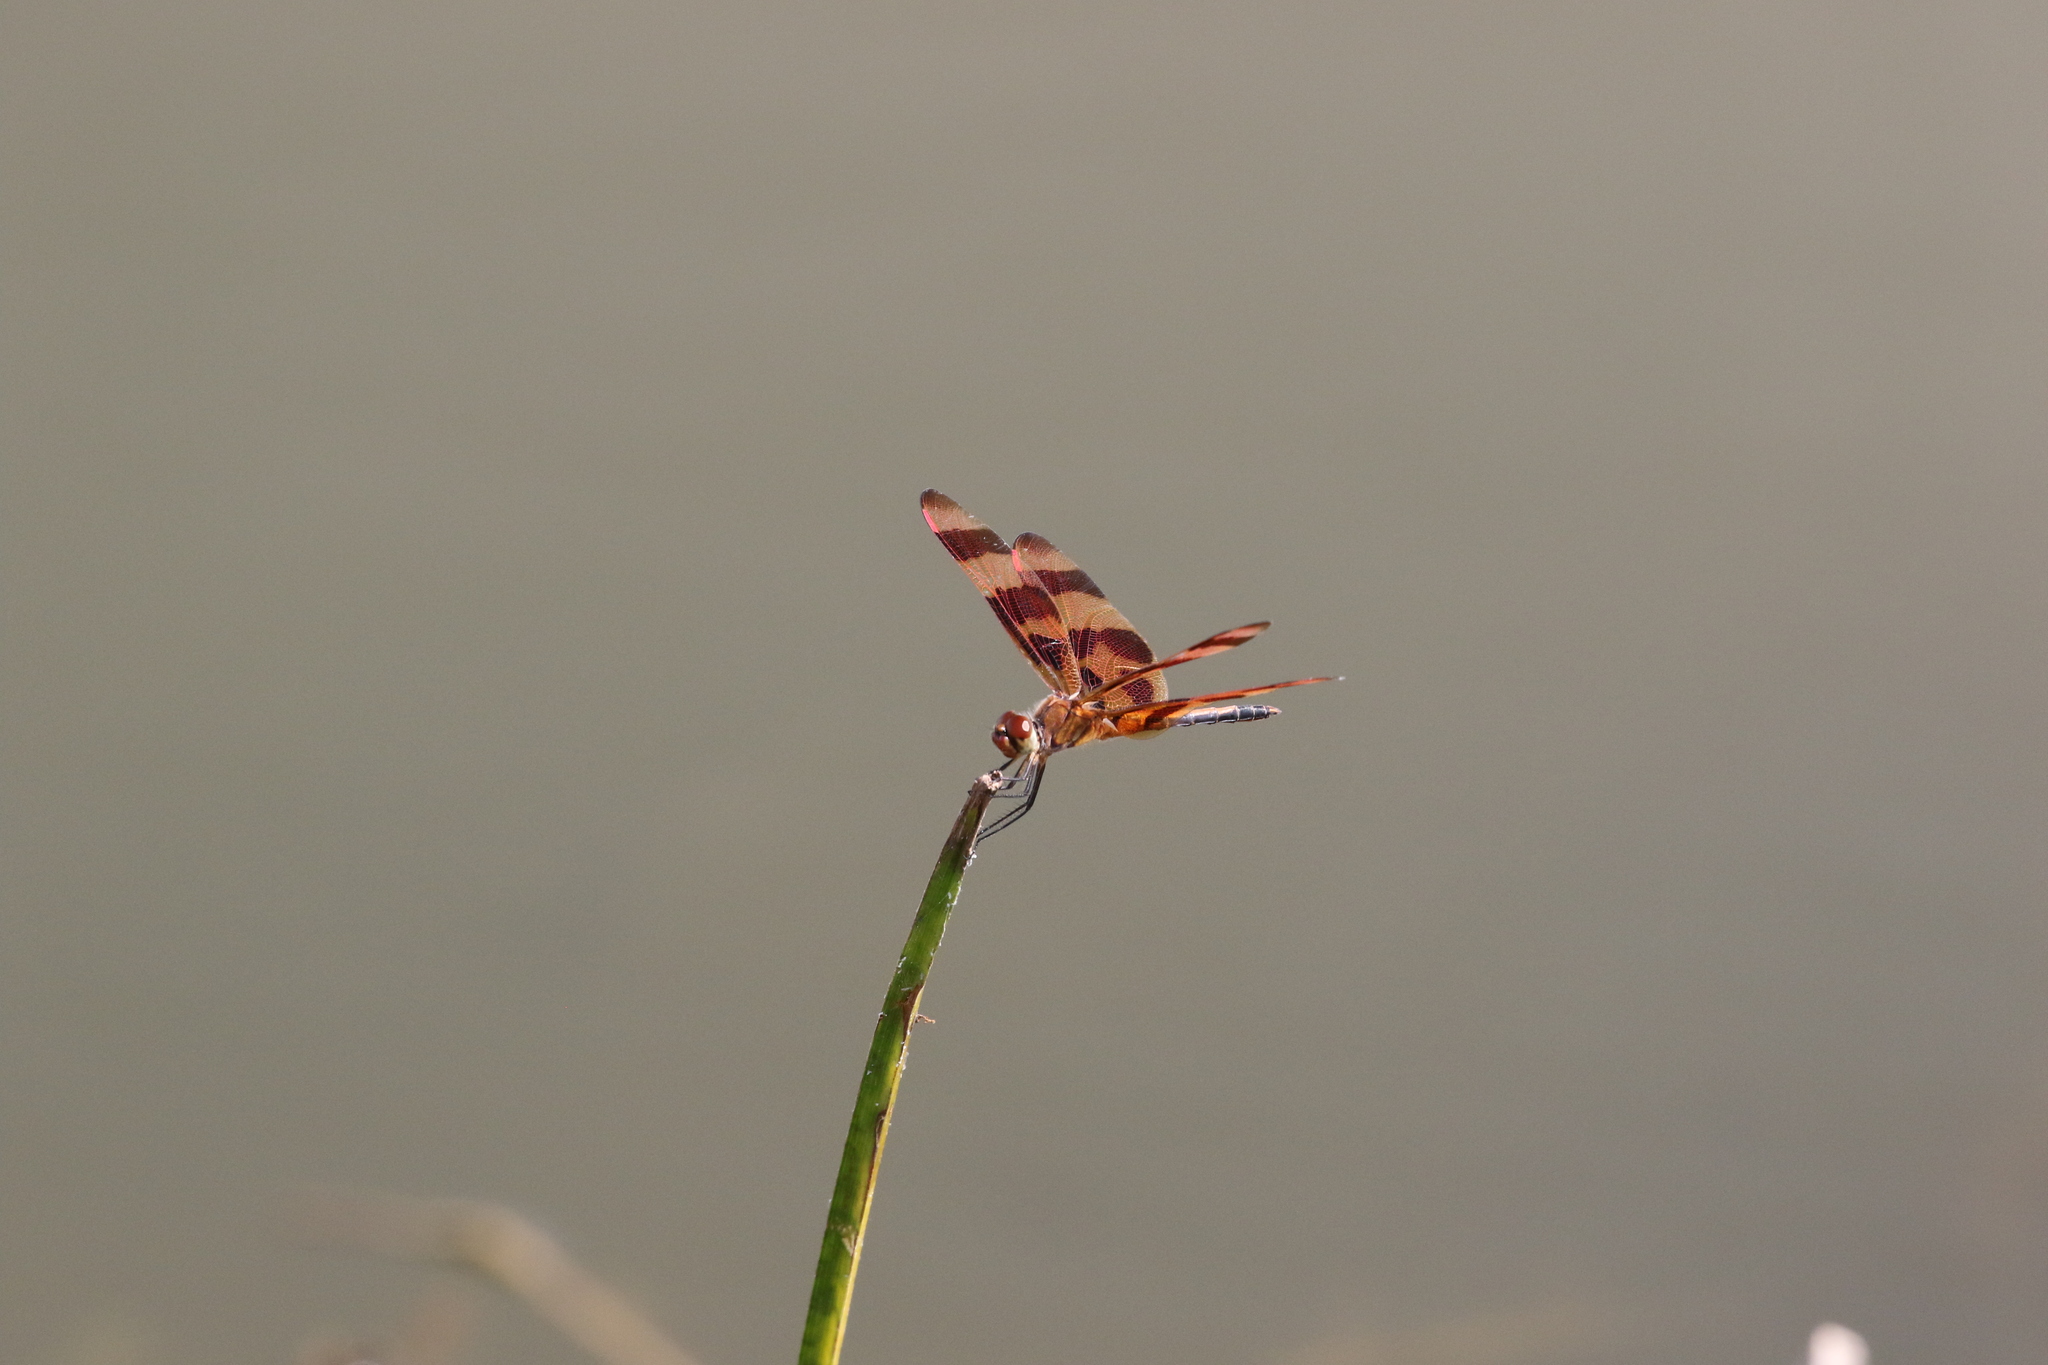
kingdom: Animalia
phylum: Arthropoda
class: Insecta
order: Odonata
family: Libellulidae
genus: Celithemis
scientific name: Celithemis eponina
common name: Halloween pennant
